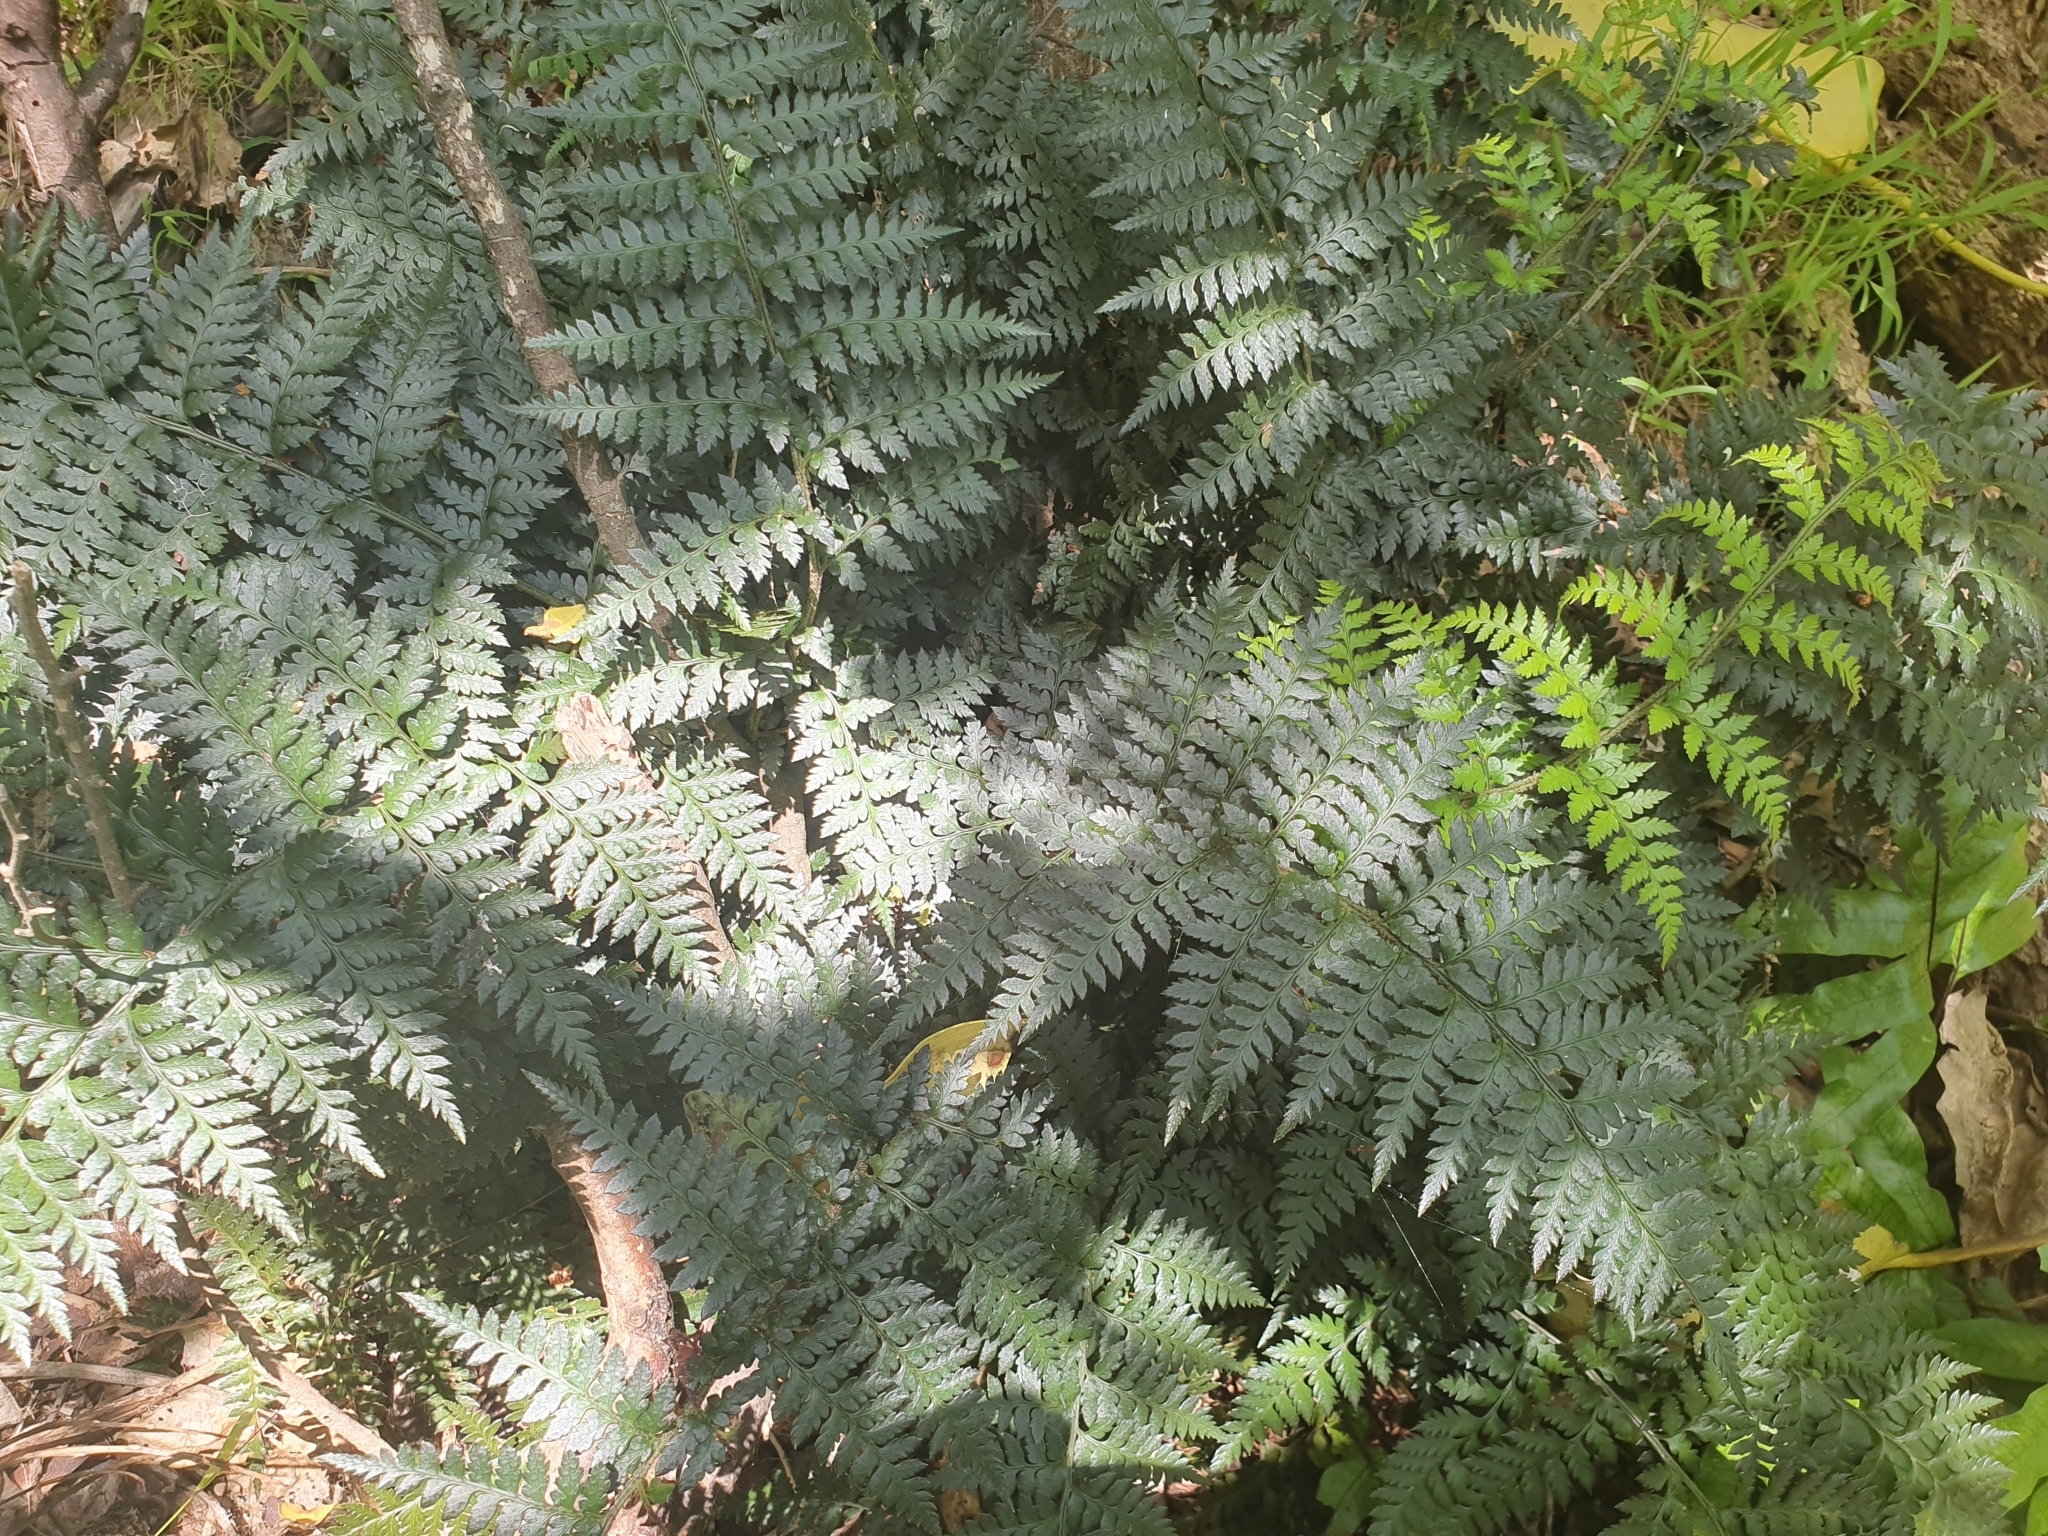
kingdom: Plantae
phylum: Tracheophyta
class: Polypodiopsida
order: Polypodiales
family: Dryopteridaceae
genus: Polystichum
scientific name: Polystichum oculatum
